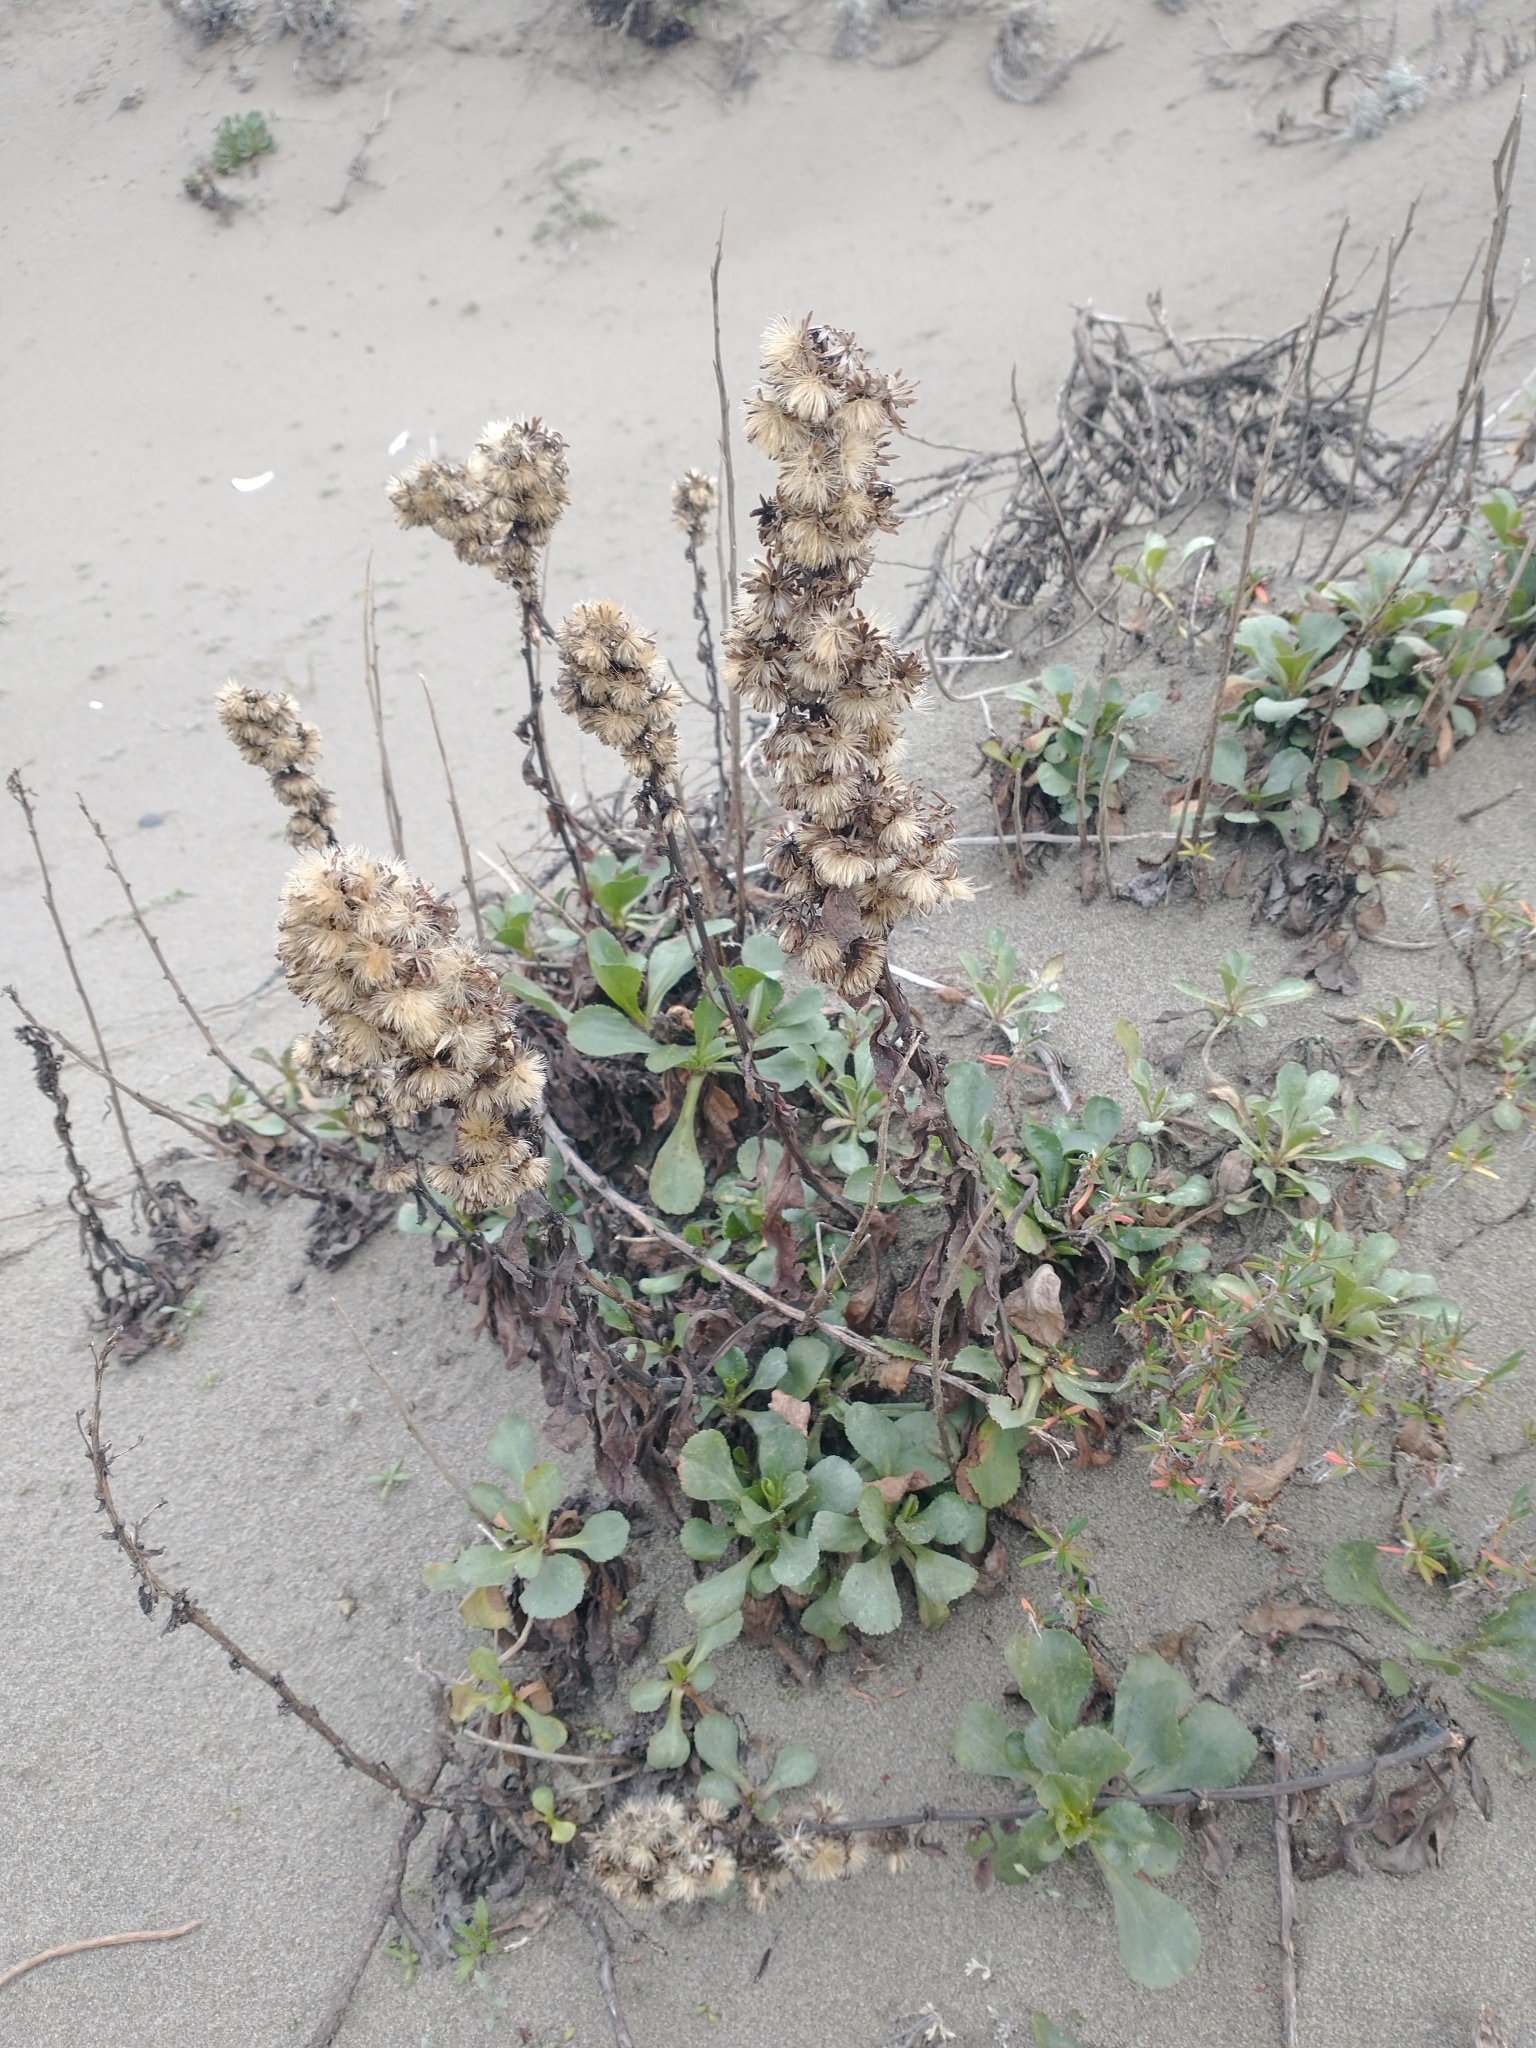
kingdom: Plantae
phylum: Tracheophyta
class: Magnoliopsida
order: Asterales
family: Asteraceae
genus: Solidago
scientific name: Solidago spathulata
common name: Coast goldenrod
